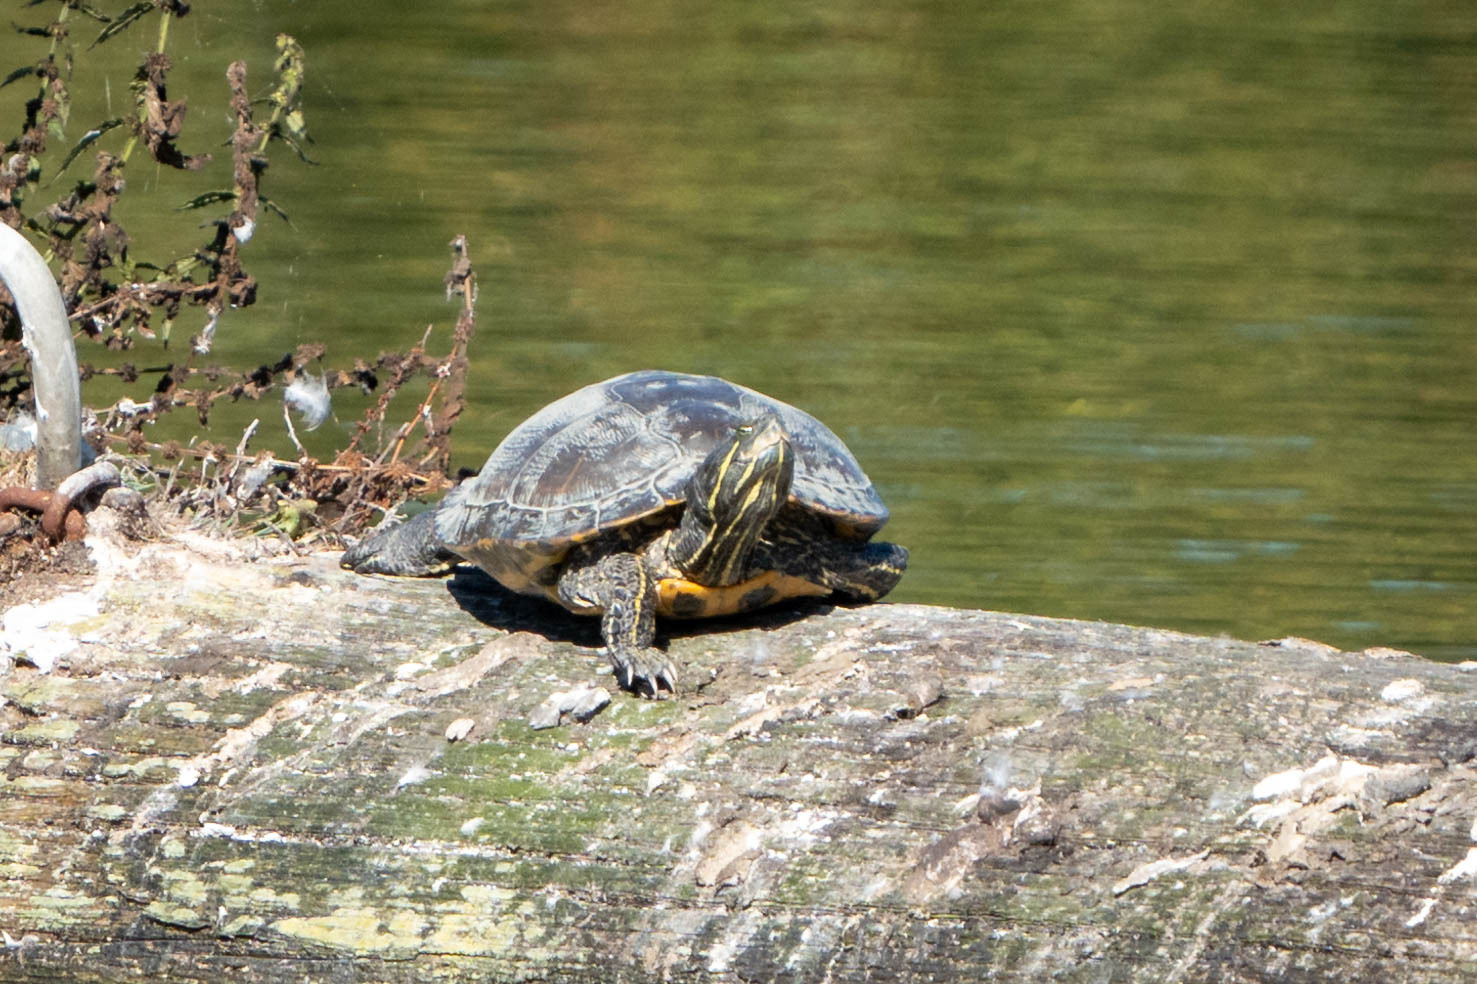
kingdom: Animalia
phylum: Chordata
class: Testudines
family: Emydidae
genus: Trachemys
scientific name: Trachemys scripta
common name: Slider
